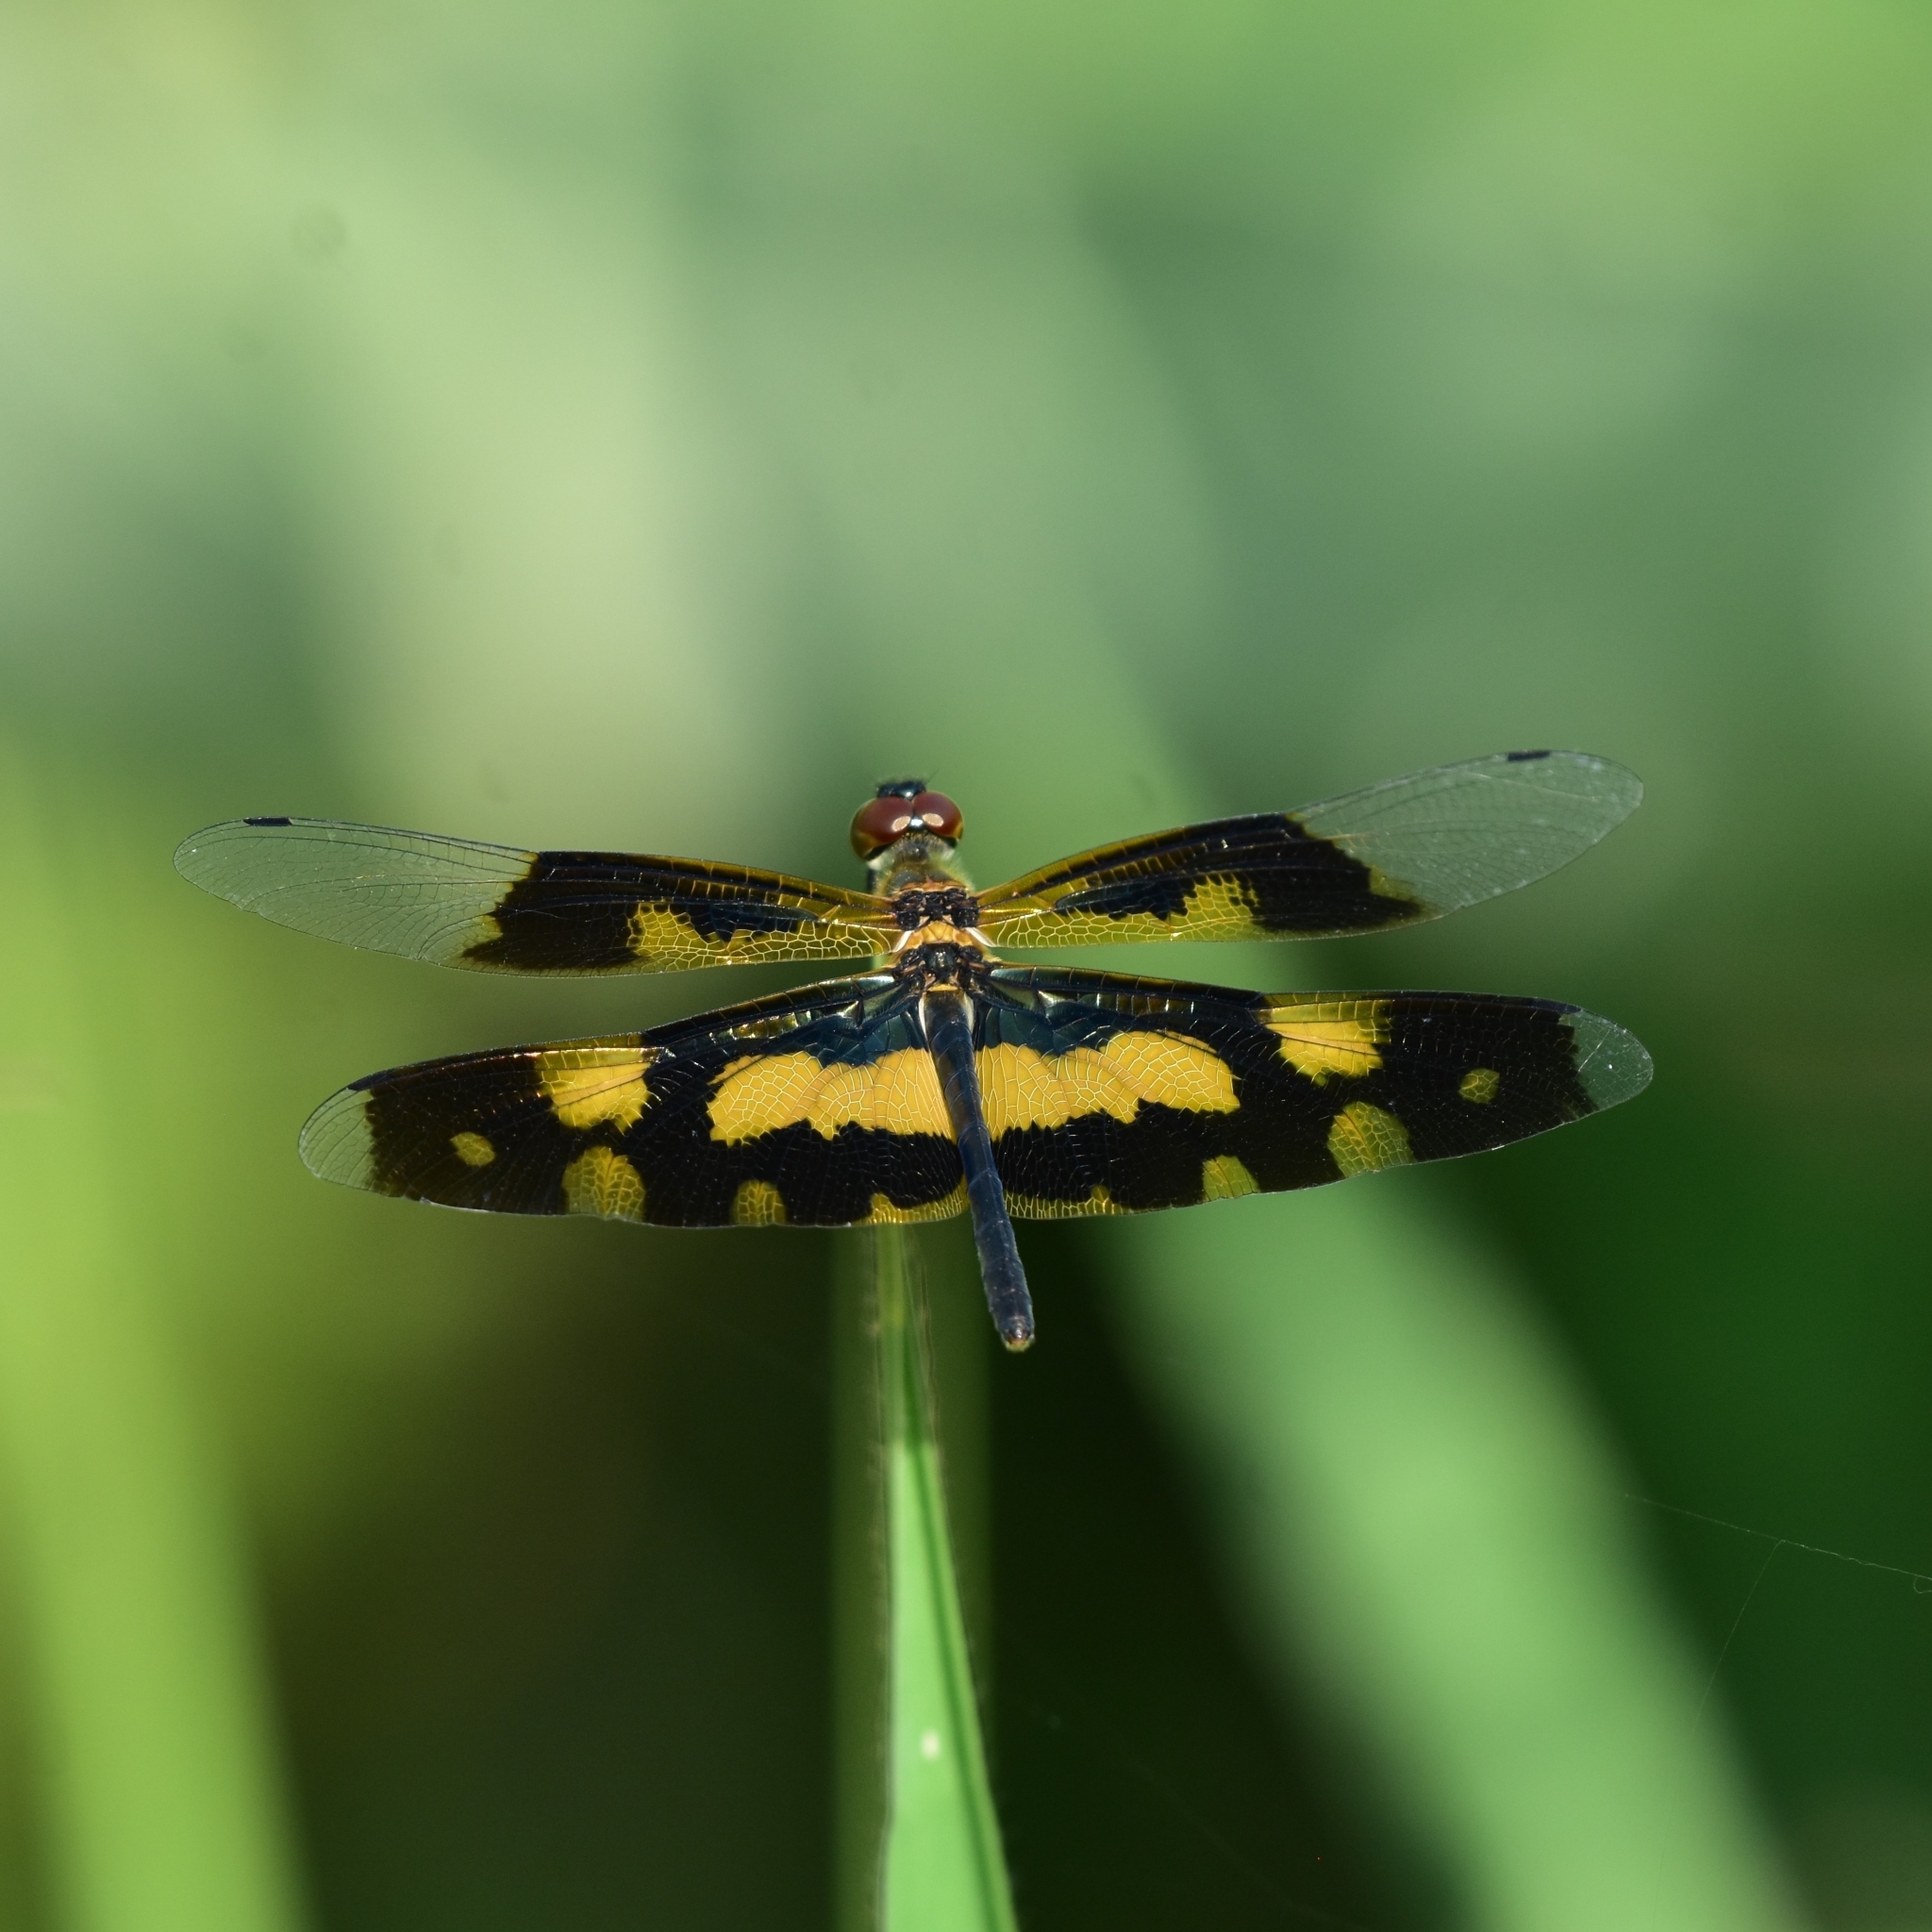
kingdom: Animalia
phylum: Arthropoda
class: Insecta
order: Odonata
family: Libellulidae
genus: Rhyothemis
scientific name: Rhyothemis variegata
